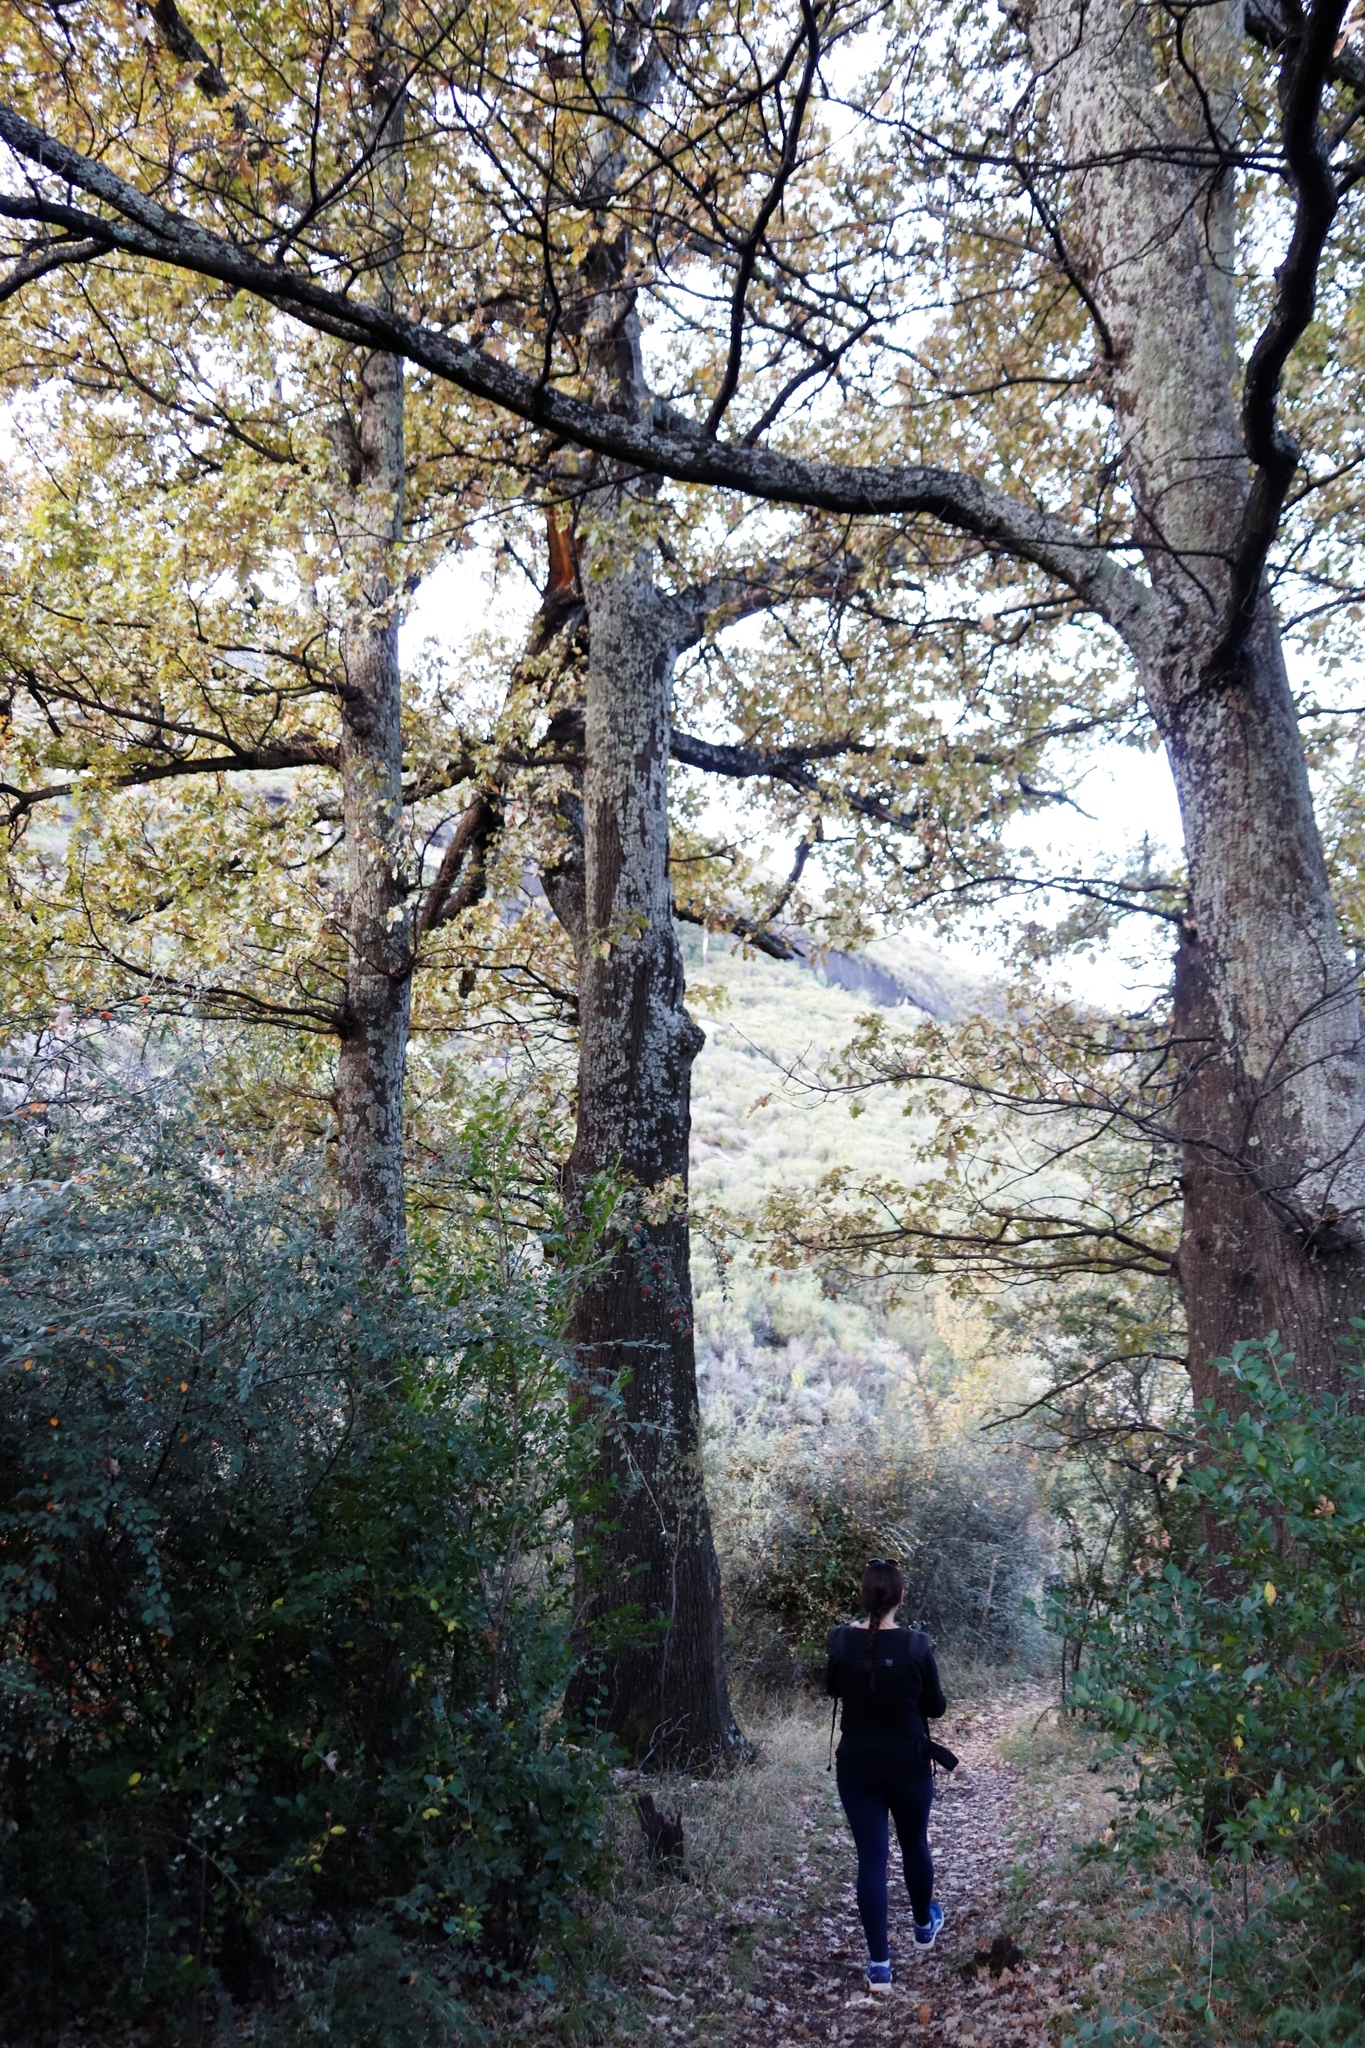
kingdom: Plantae
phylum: Tracheophyta
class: Magnoliopsida
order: Fagales
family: Fagaceae
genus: Quercus
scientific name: Quercus robur
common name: Pedunculate oak
